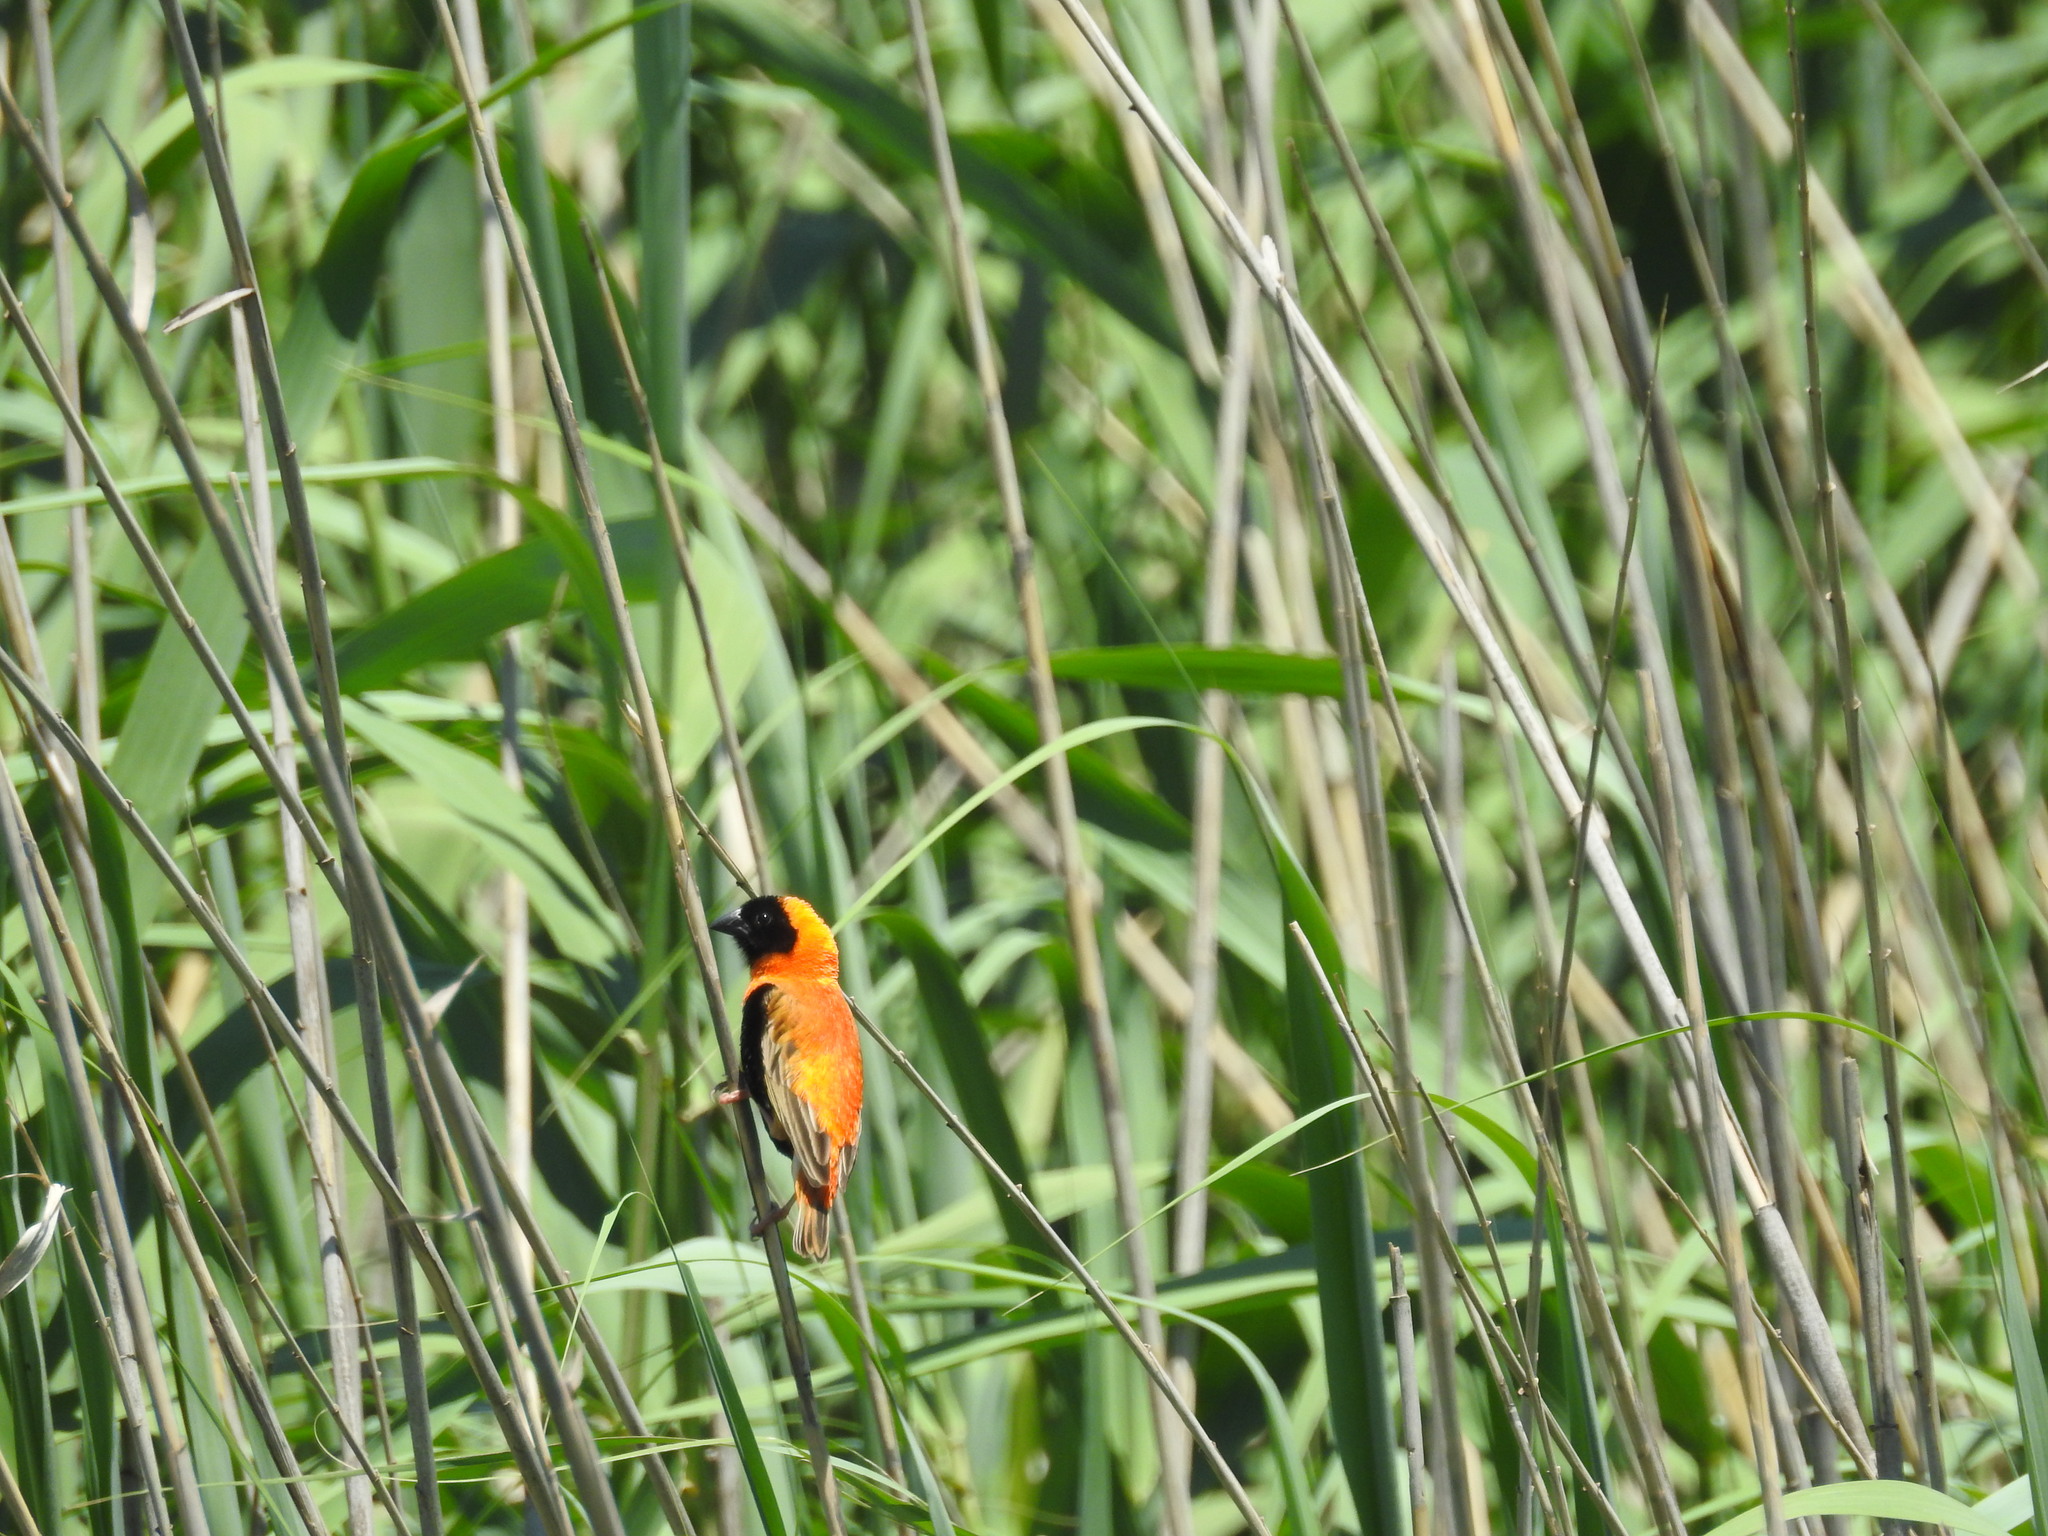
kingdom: Animalia
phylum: Chordata
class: Aves
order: Passeriformes
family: Ploceidae
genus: Euplectes
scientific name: Euplectes orix
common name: Southern red bishop
